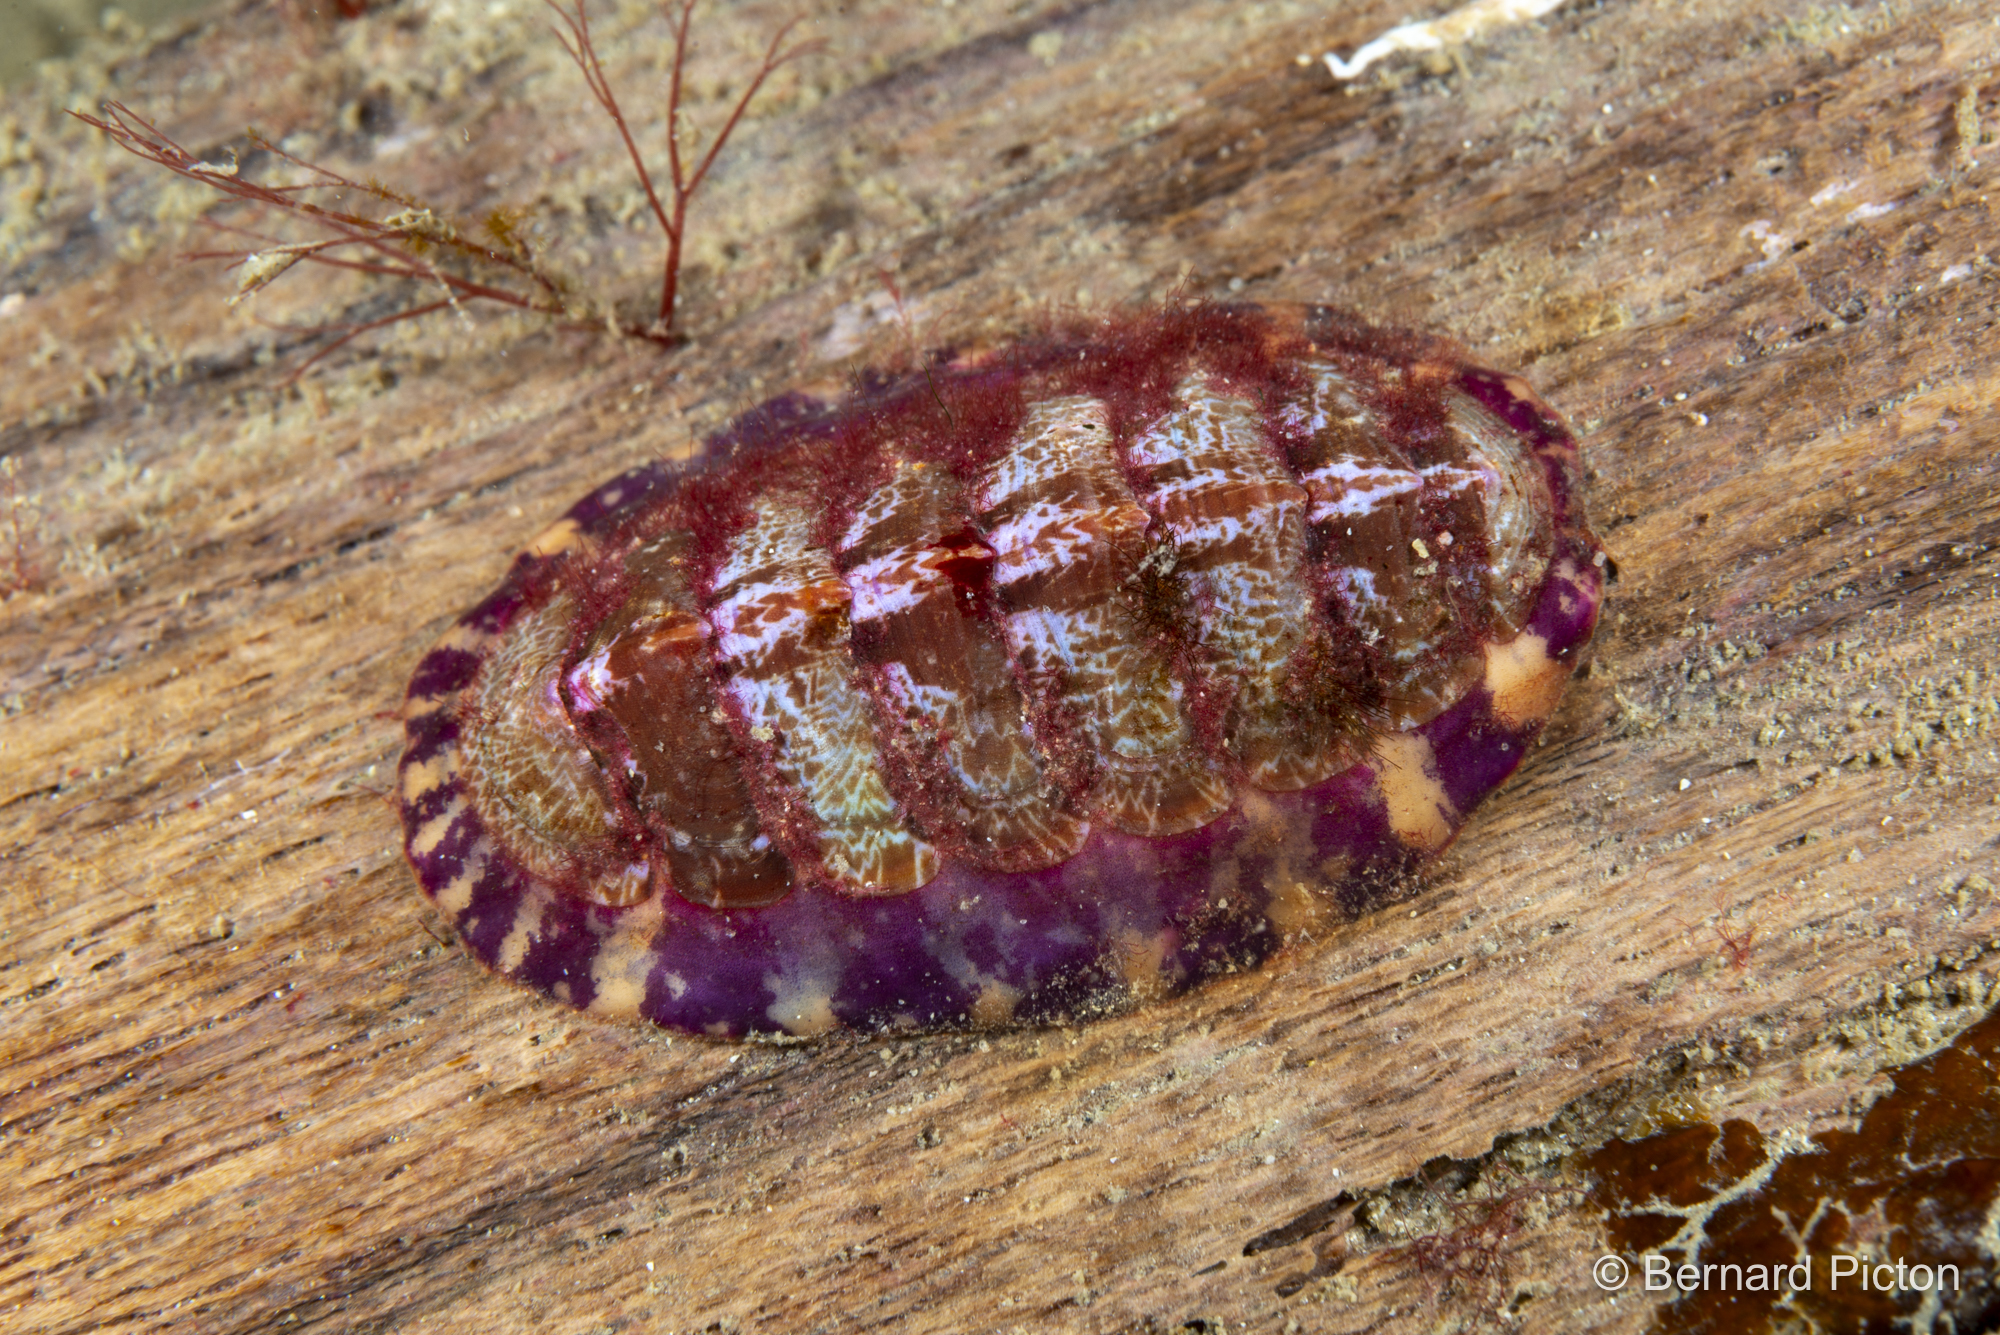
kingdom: Animalia
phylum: Mollusca
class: Polyplacophora
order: Chitonida
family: Tonicellidae
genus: Tonicella
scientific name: Tonicella marmorea
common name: Lined red chiton
